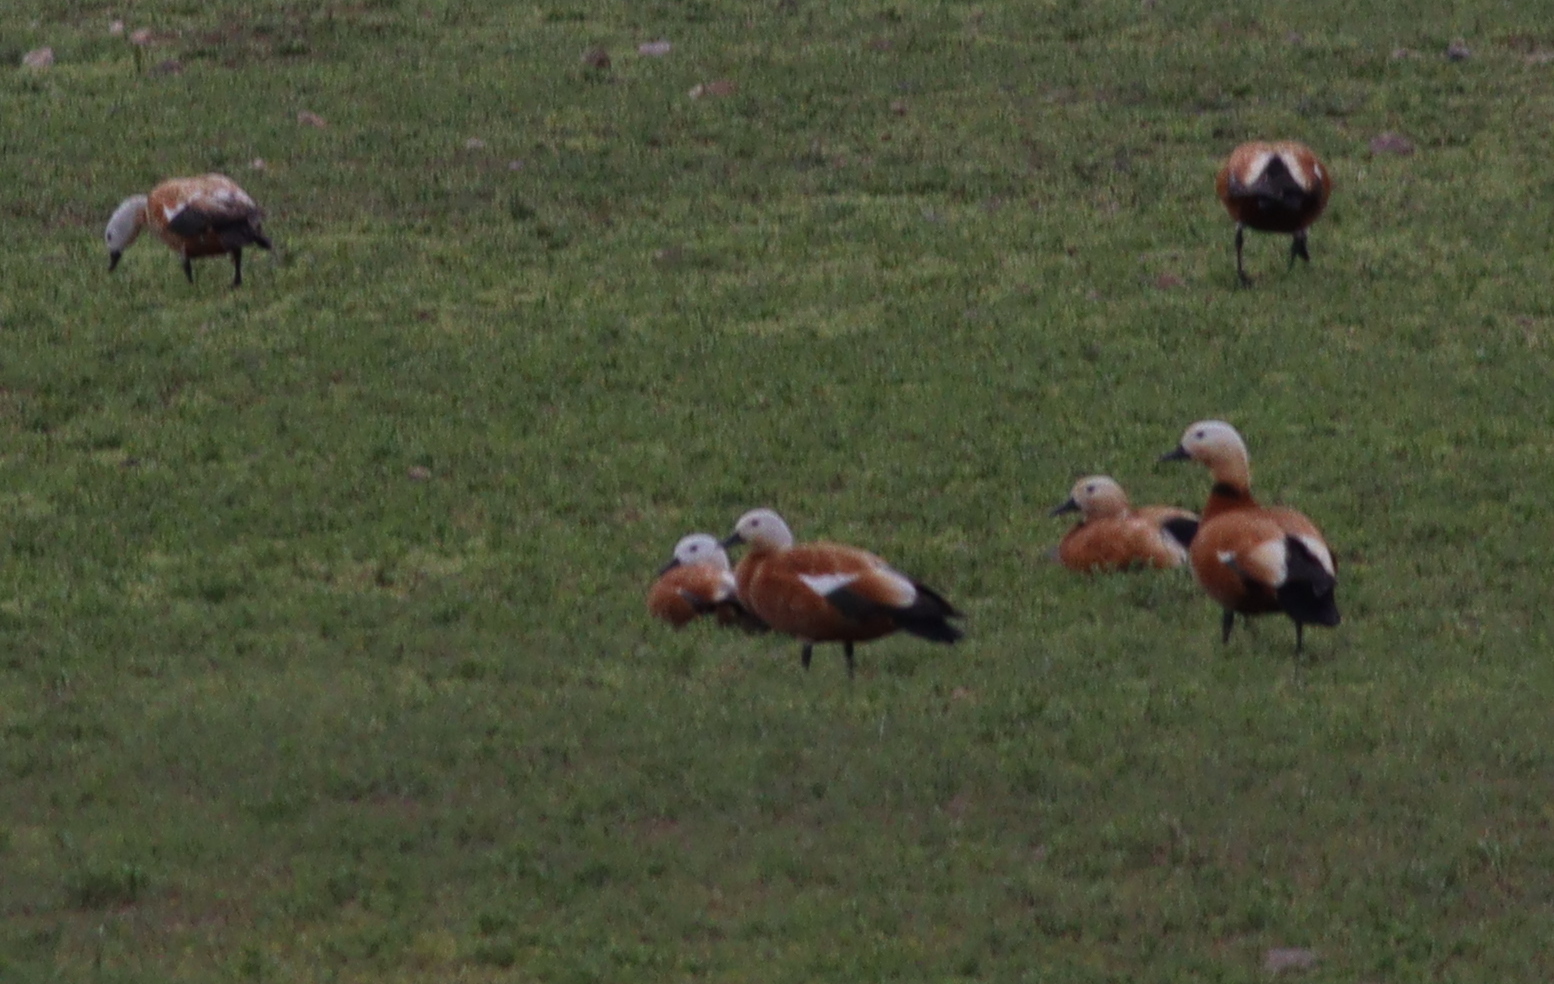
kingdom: Animalia
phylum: Chordata
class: Aves
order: Anseriformes
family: Anatidae
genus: Tadorna
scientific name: Tadorna ferruginea
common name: Ruddy shelduck
